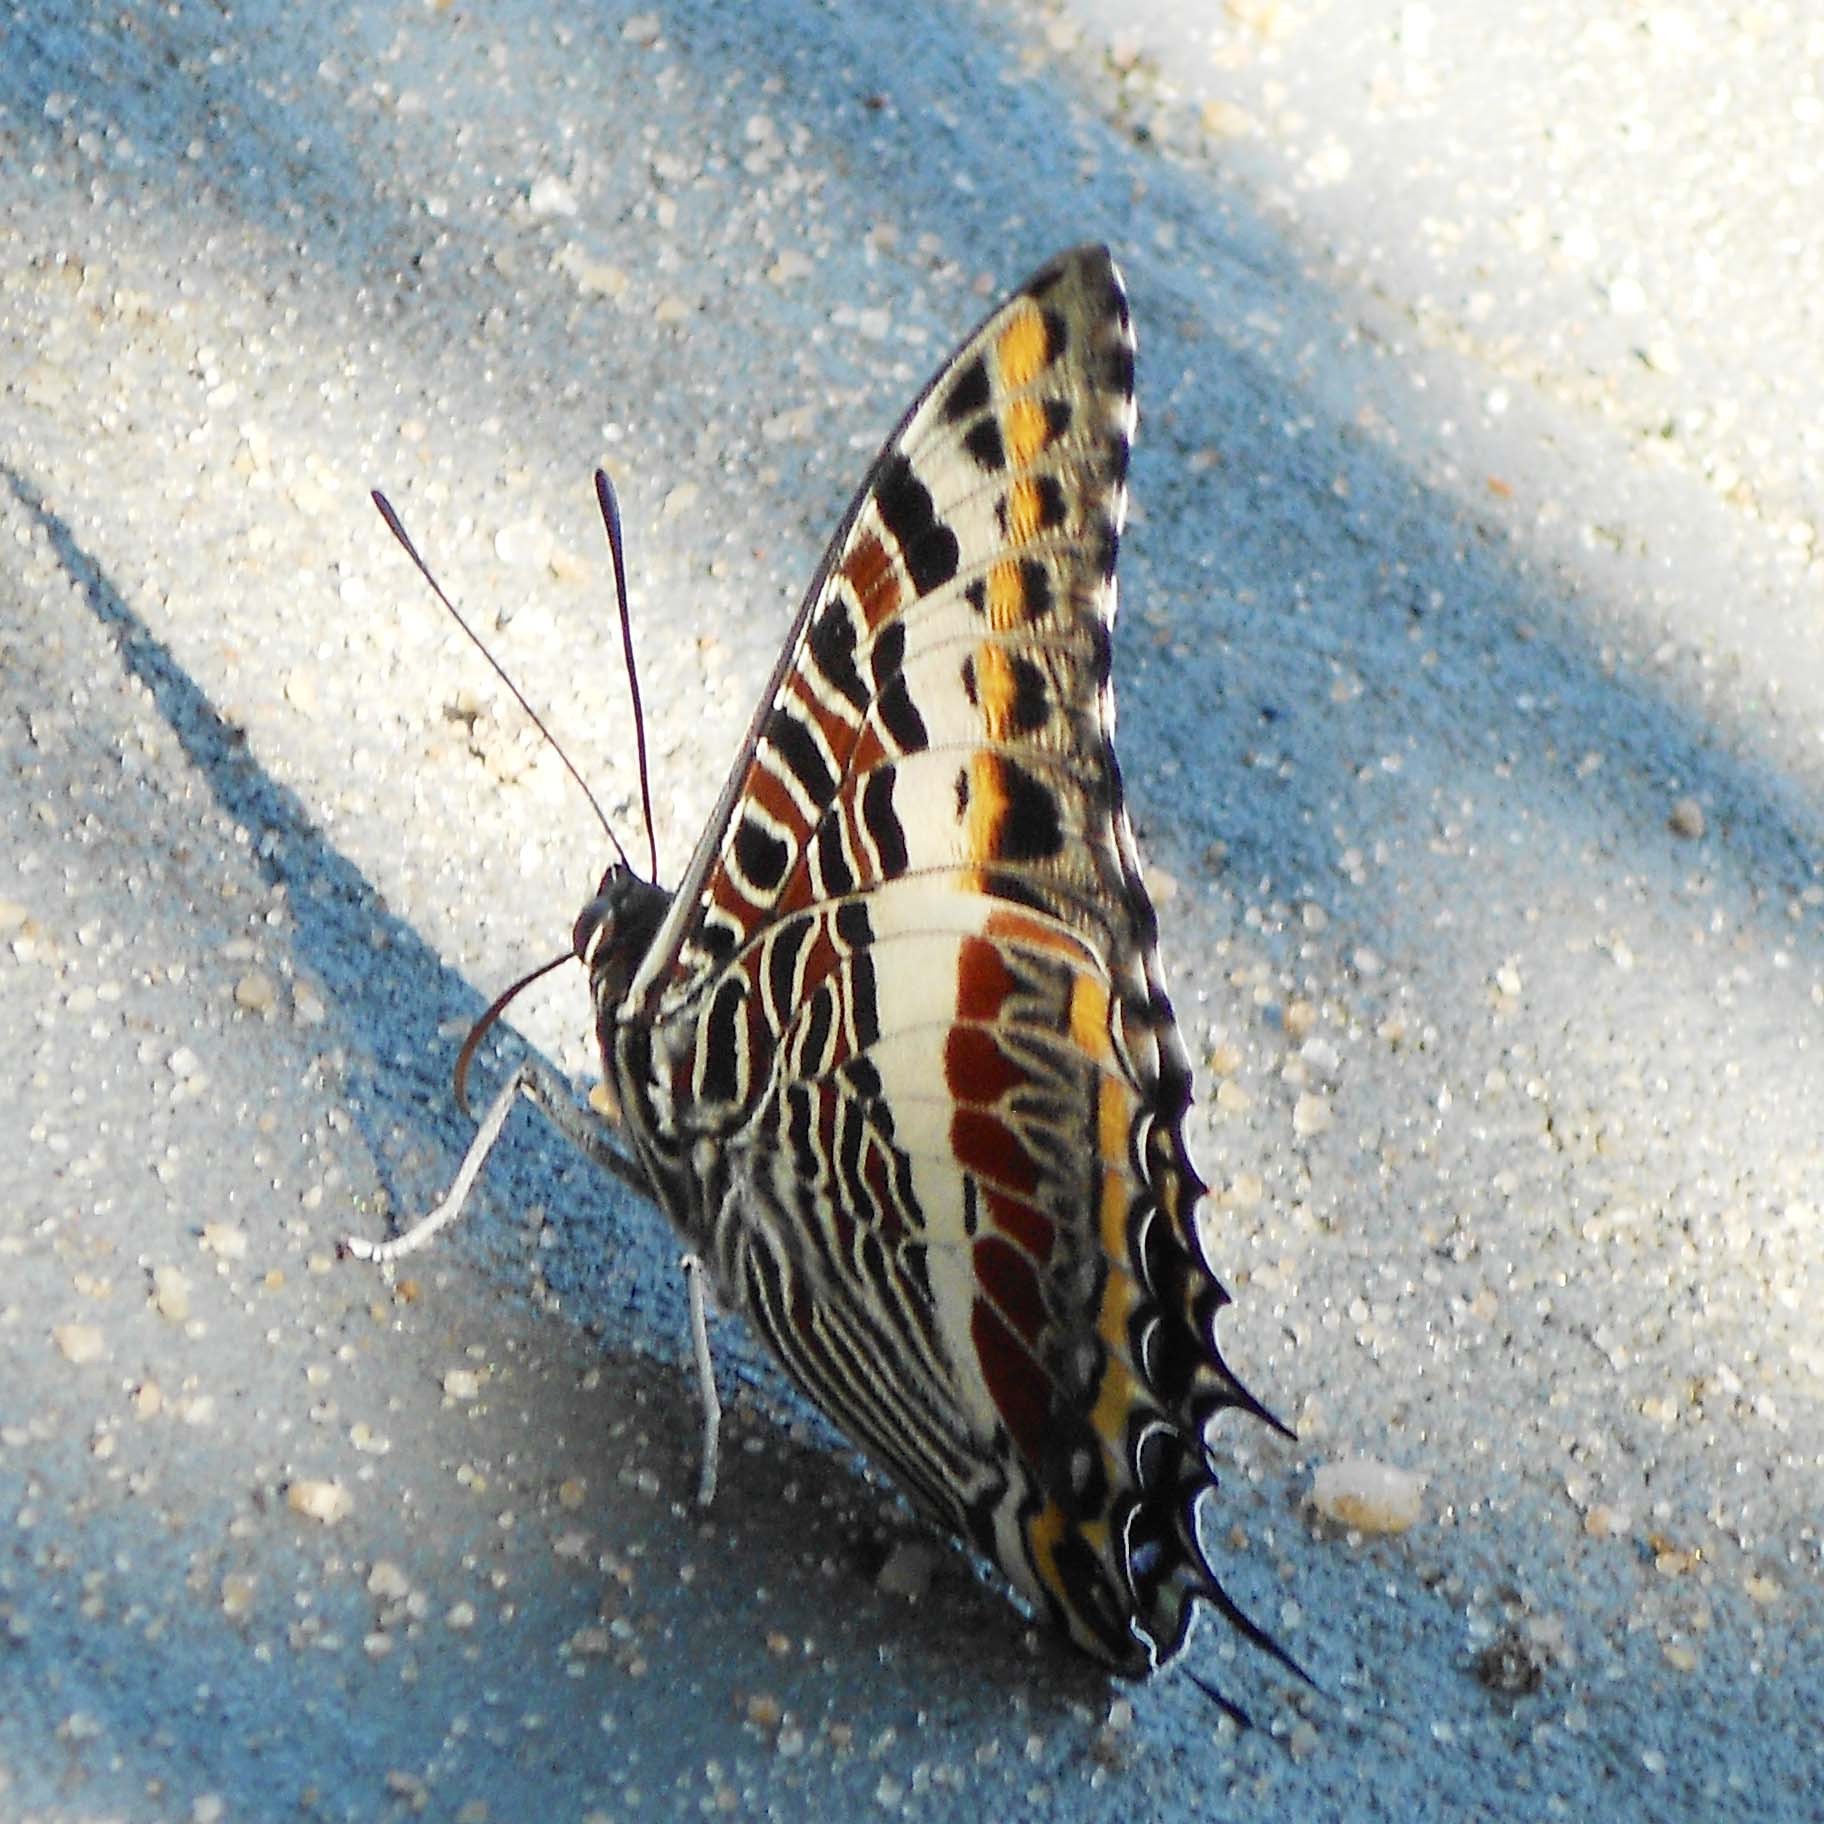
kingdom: Animalia
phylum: Arthropoda
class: Insecta
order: Lepidoptera
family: Nymphalidae
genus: Charaxes
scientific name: Charaxes castor
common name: Giant charaxes
